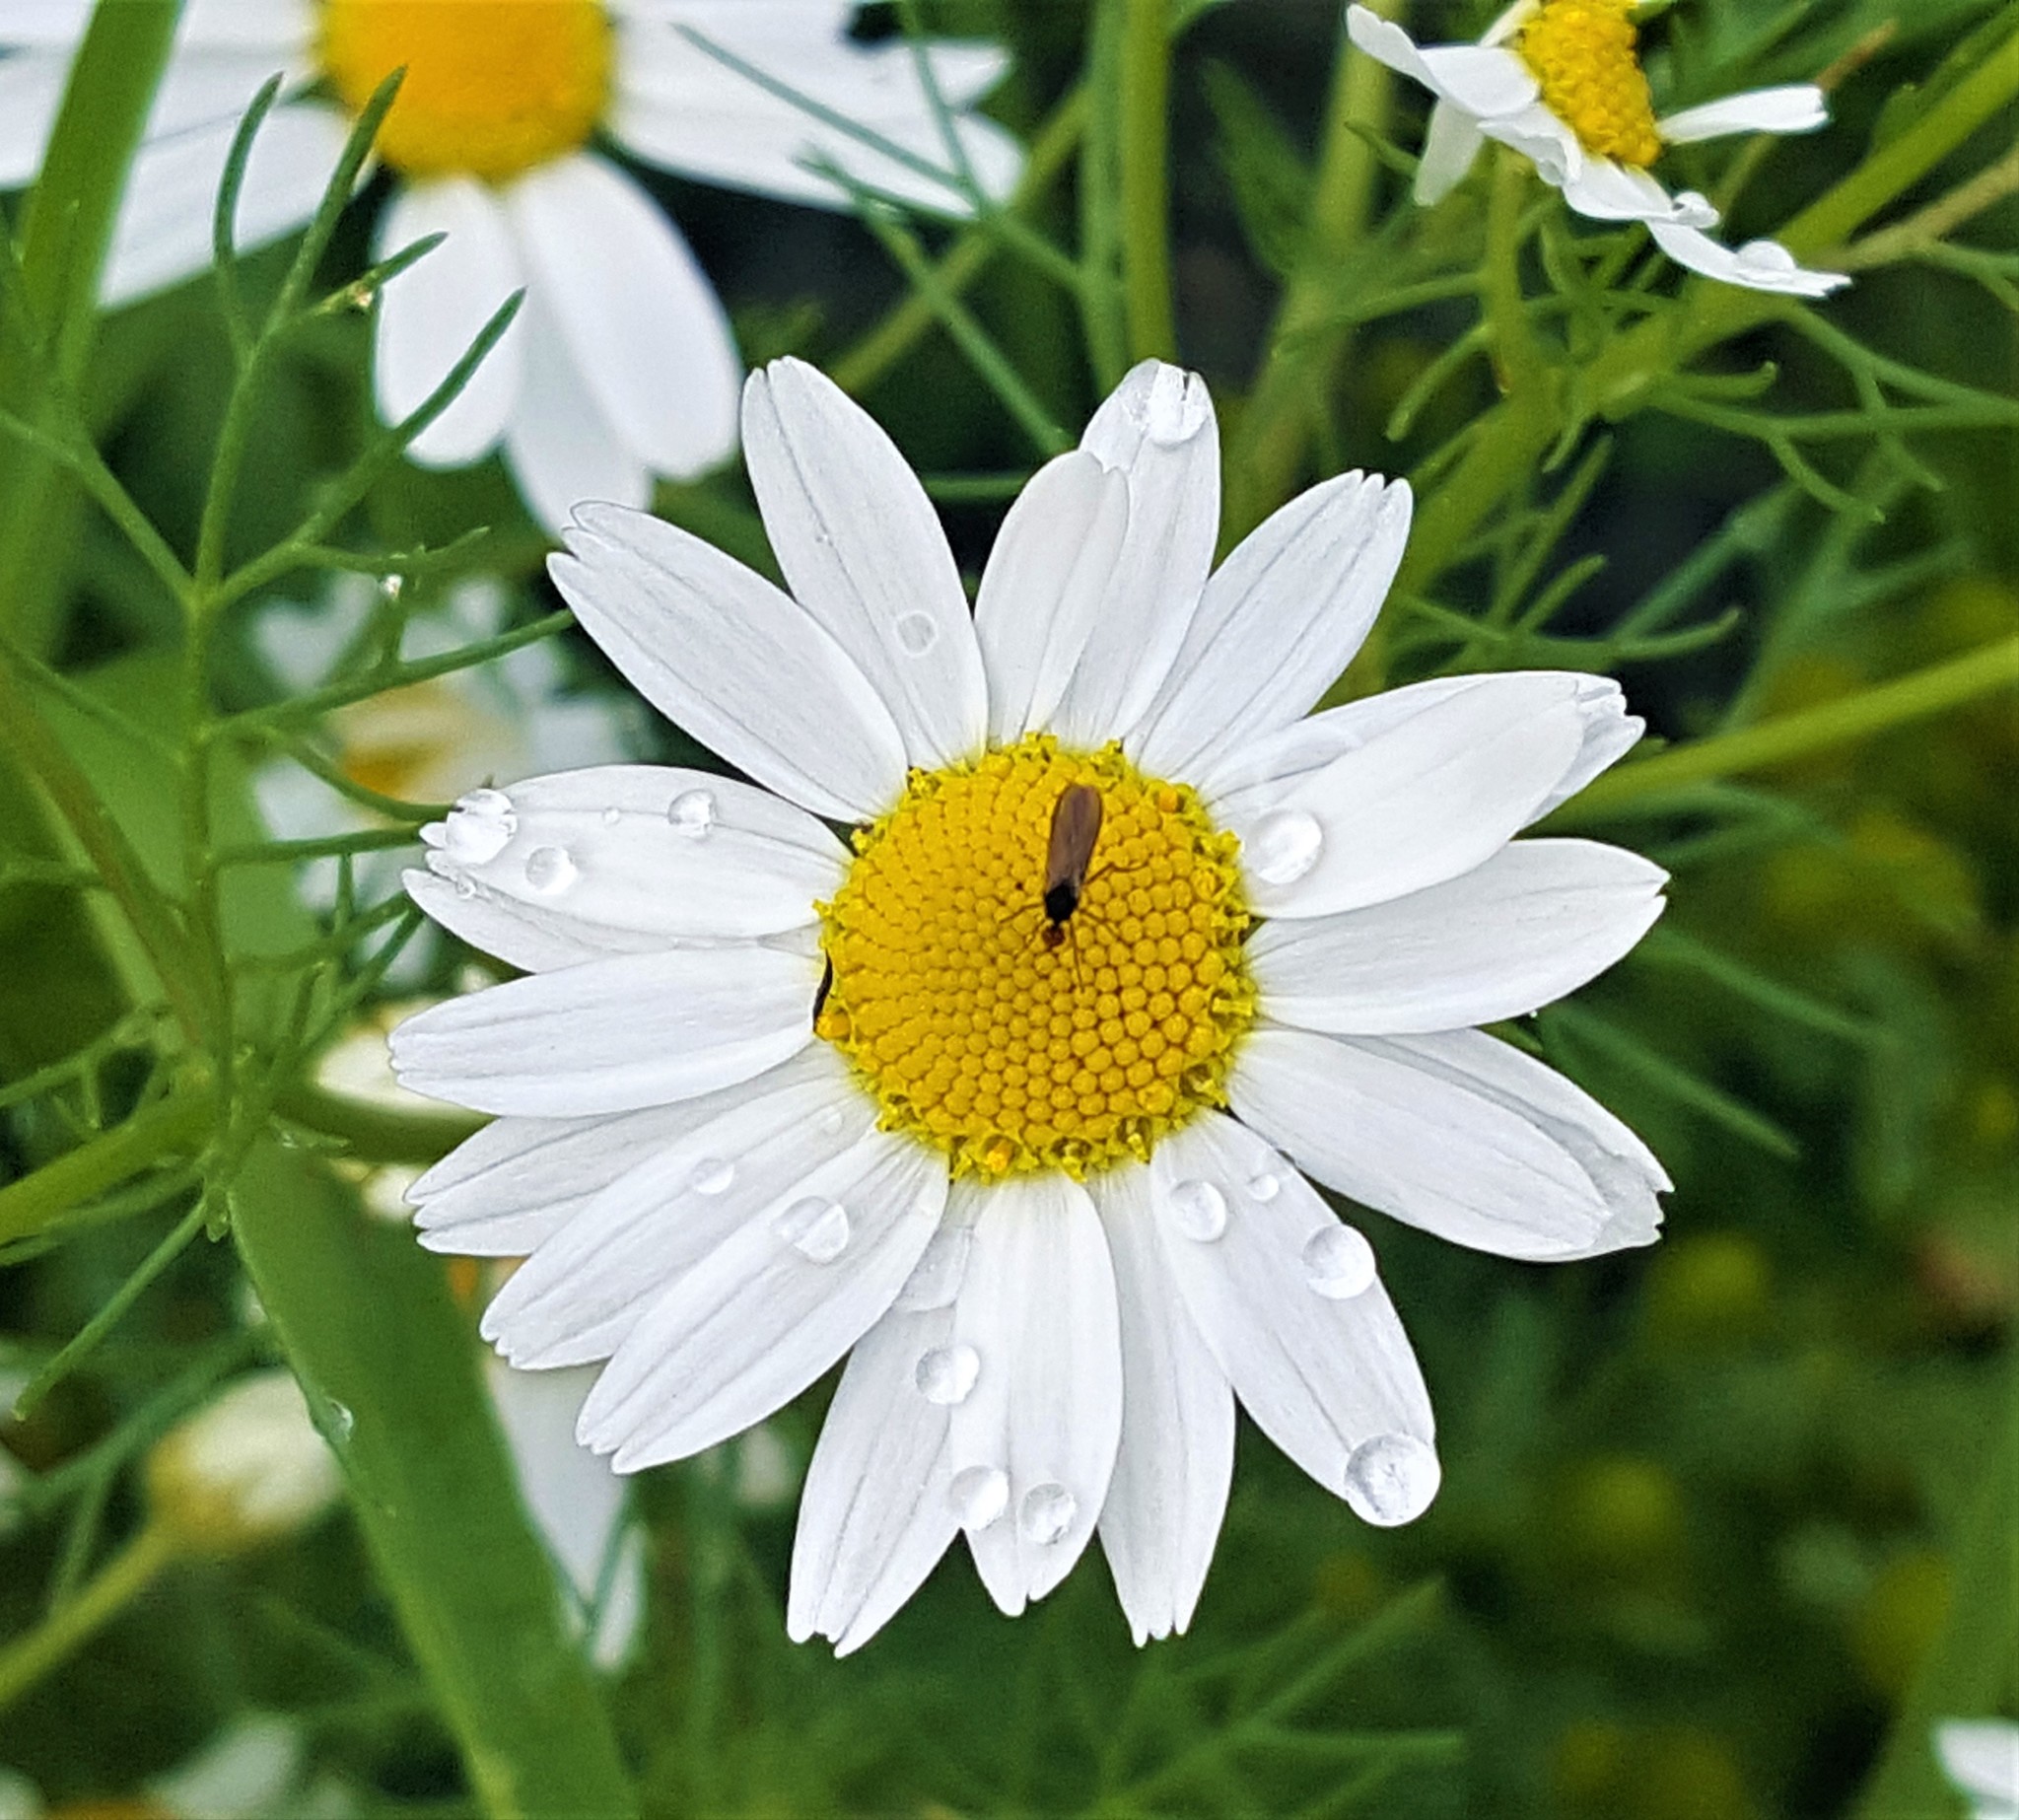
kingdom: Plantae
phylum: Tracheophyta
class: Magnoliopsida
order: Asterales
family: Asteraceae
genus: Tripleurospermum
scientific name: Tripleurospermum inodorum
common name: Scentless mayweed
